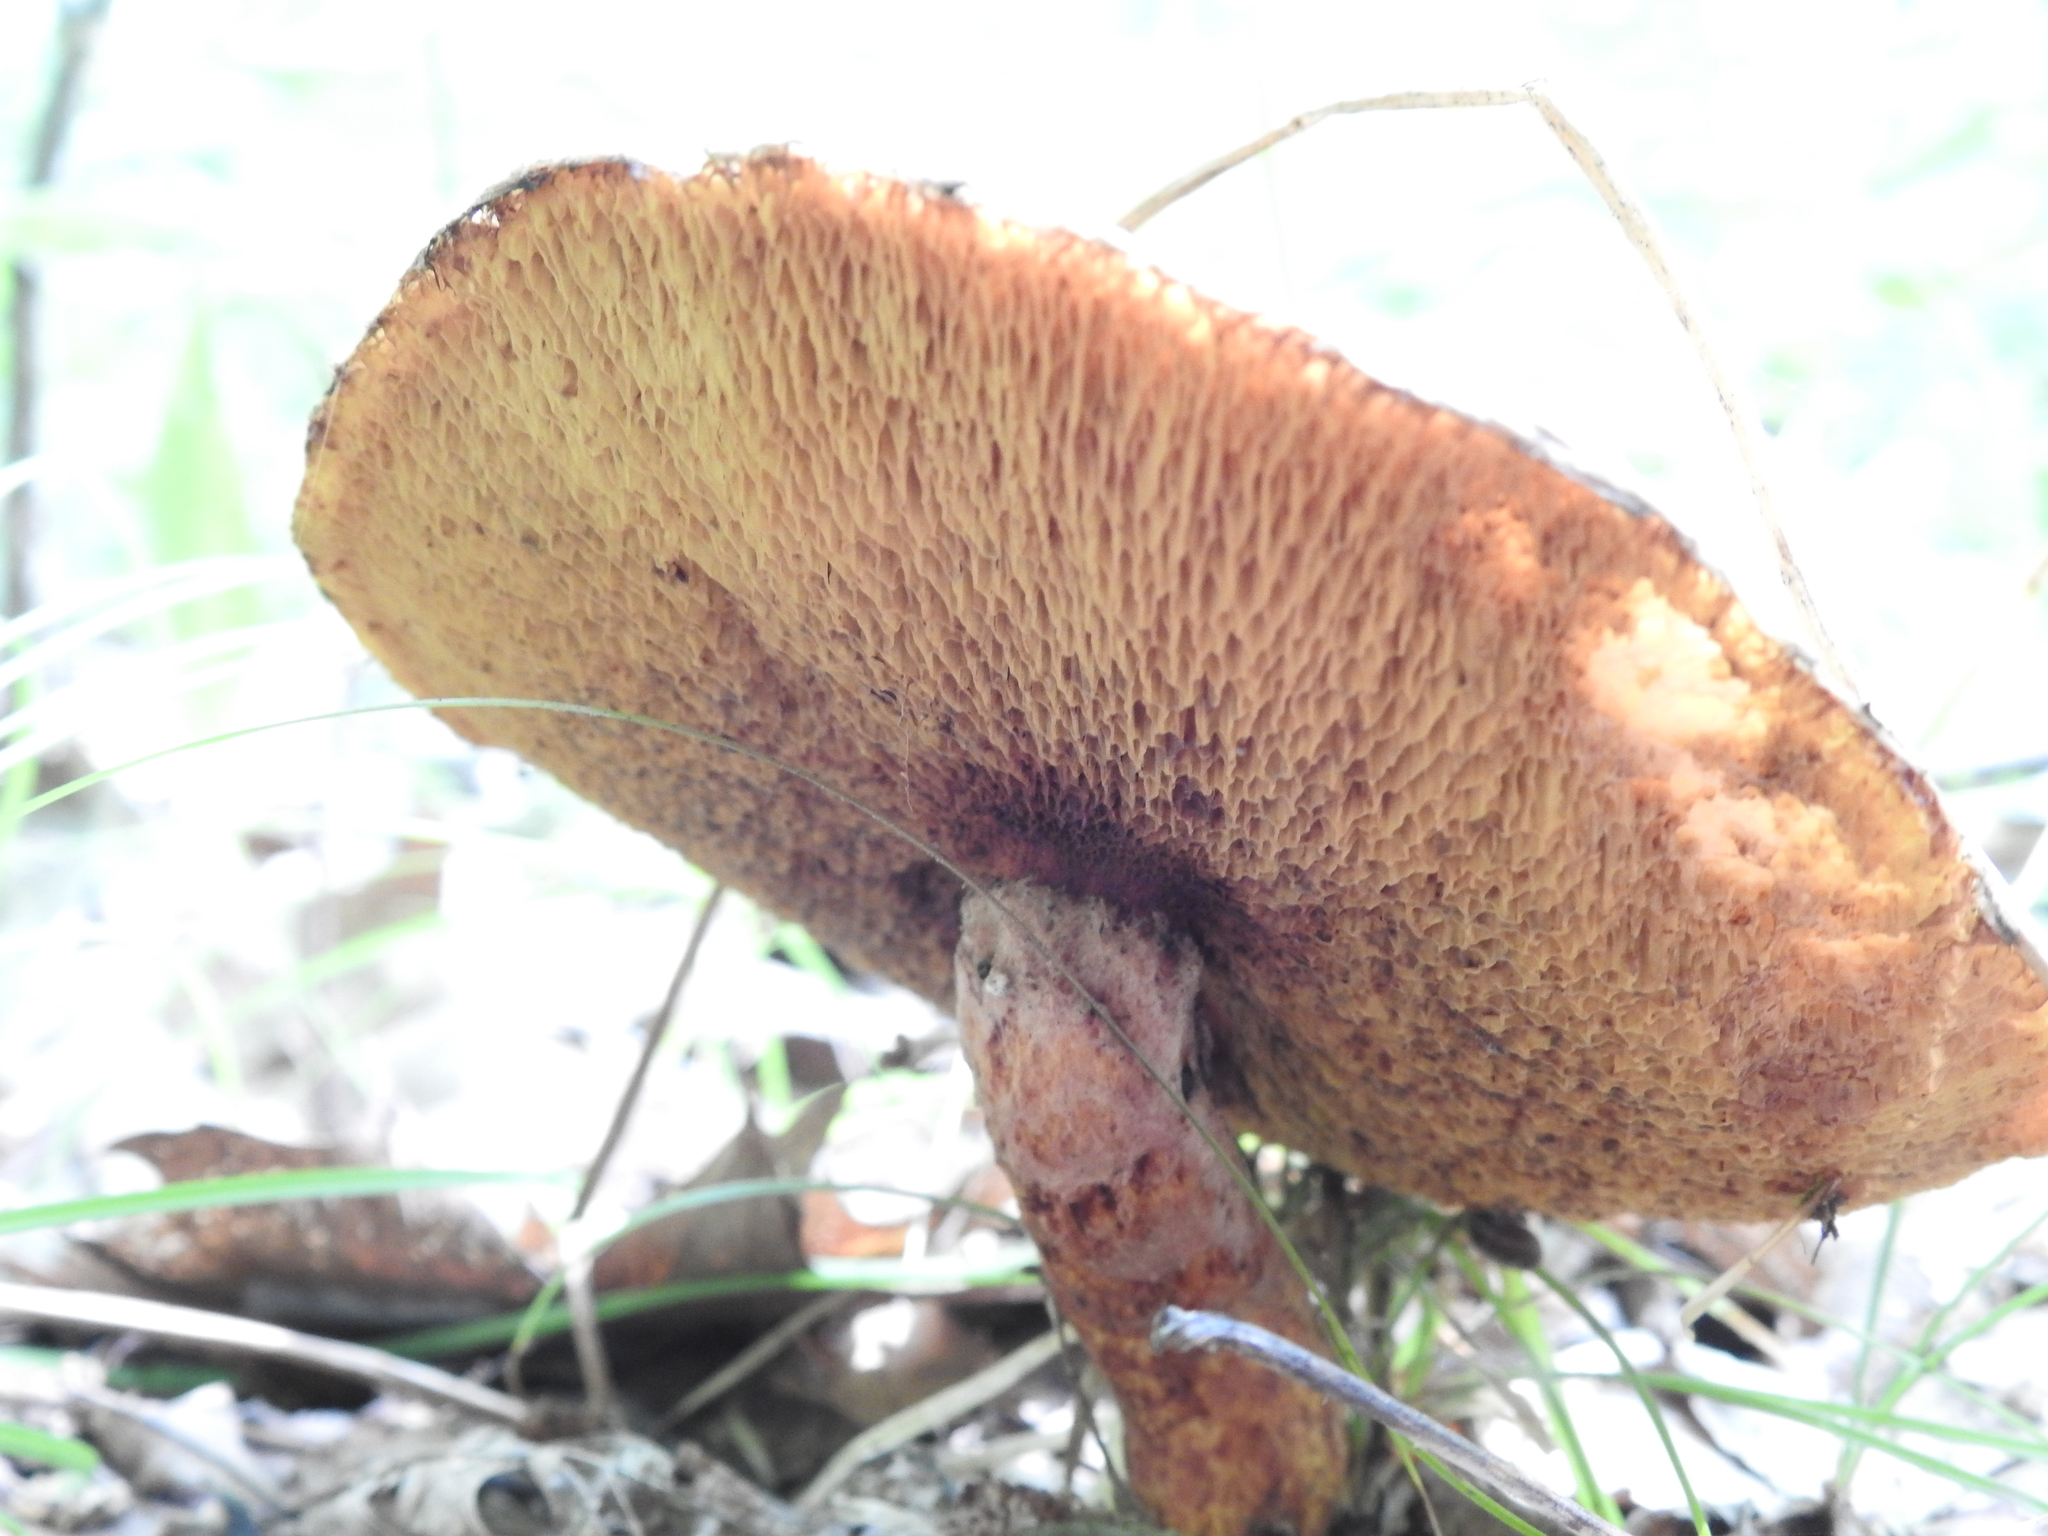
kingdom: Fungi
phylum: Basidiomycota
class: Agaricomycetes
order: Boletales
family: Suillaceae
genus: Suillus
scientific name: Suillus spraguei
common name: Painted suillus
